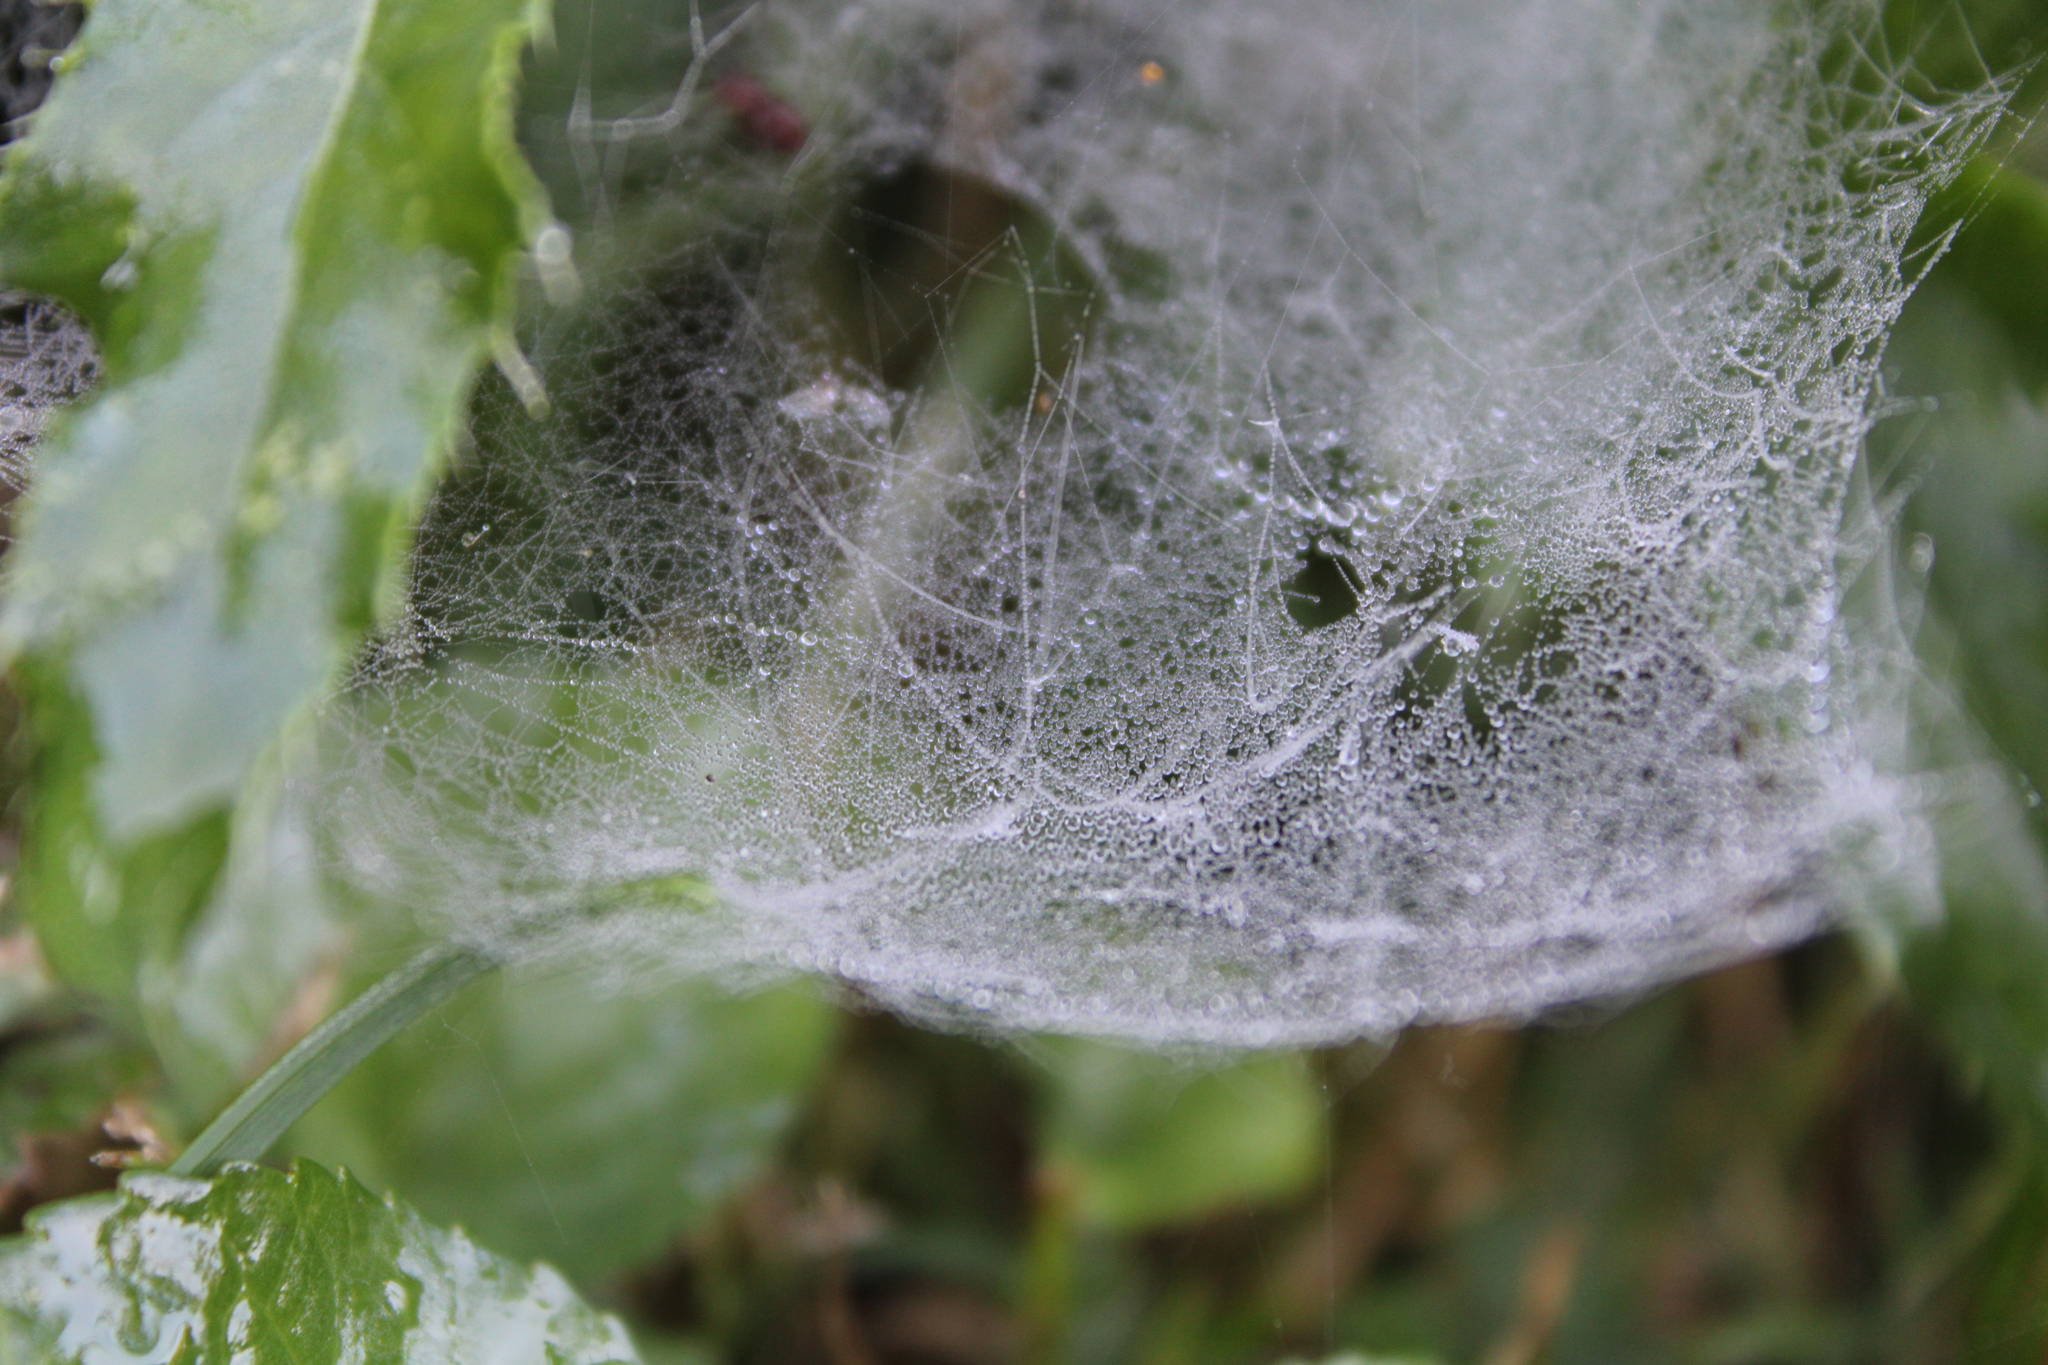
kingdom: Animalia
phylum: Arthropoda
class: Arachnida
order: Araneae
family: Linyphiidae
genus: Florinda
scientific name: Florinda coccinea
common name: Black-tailed red sheetweaver
